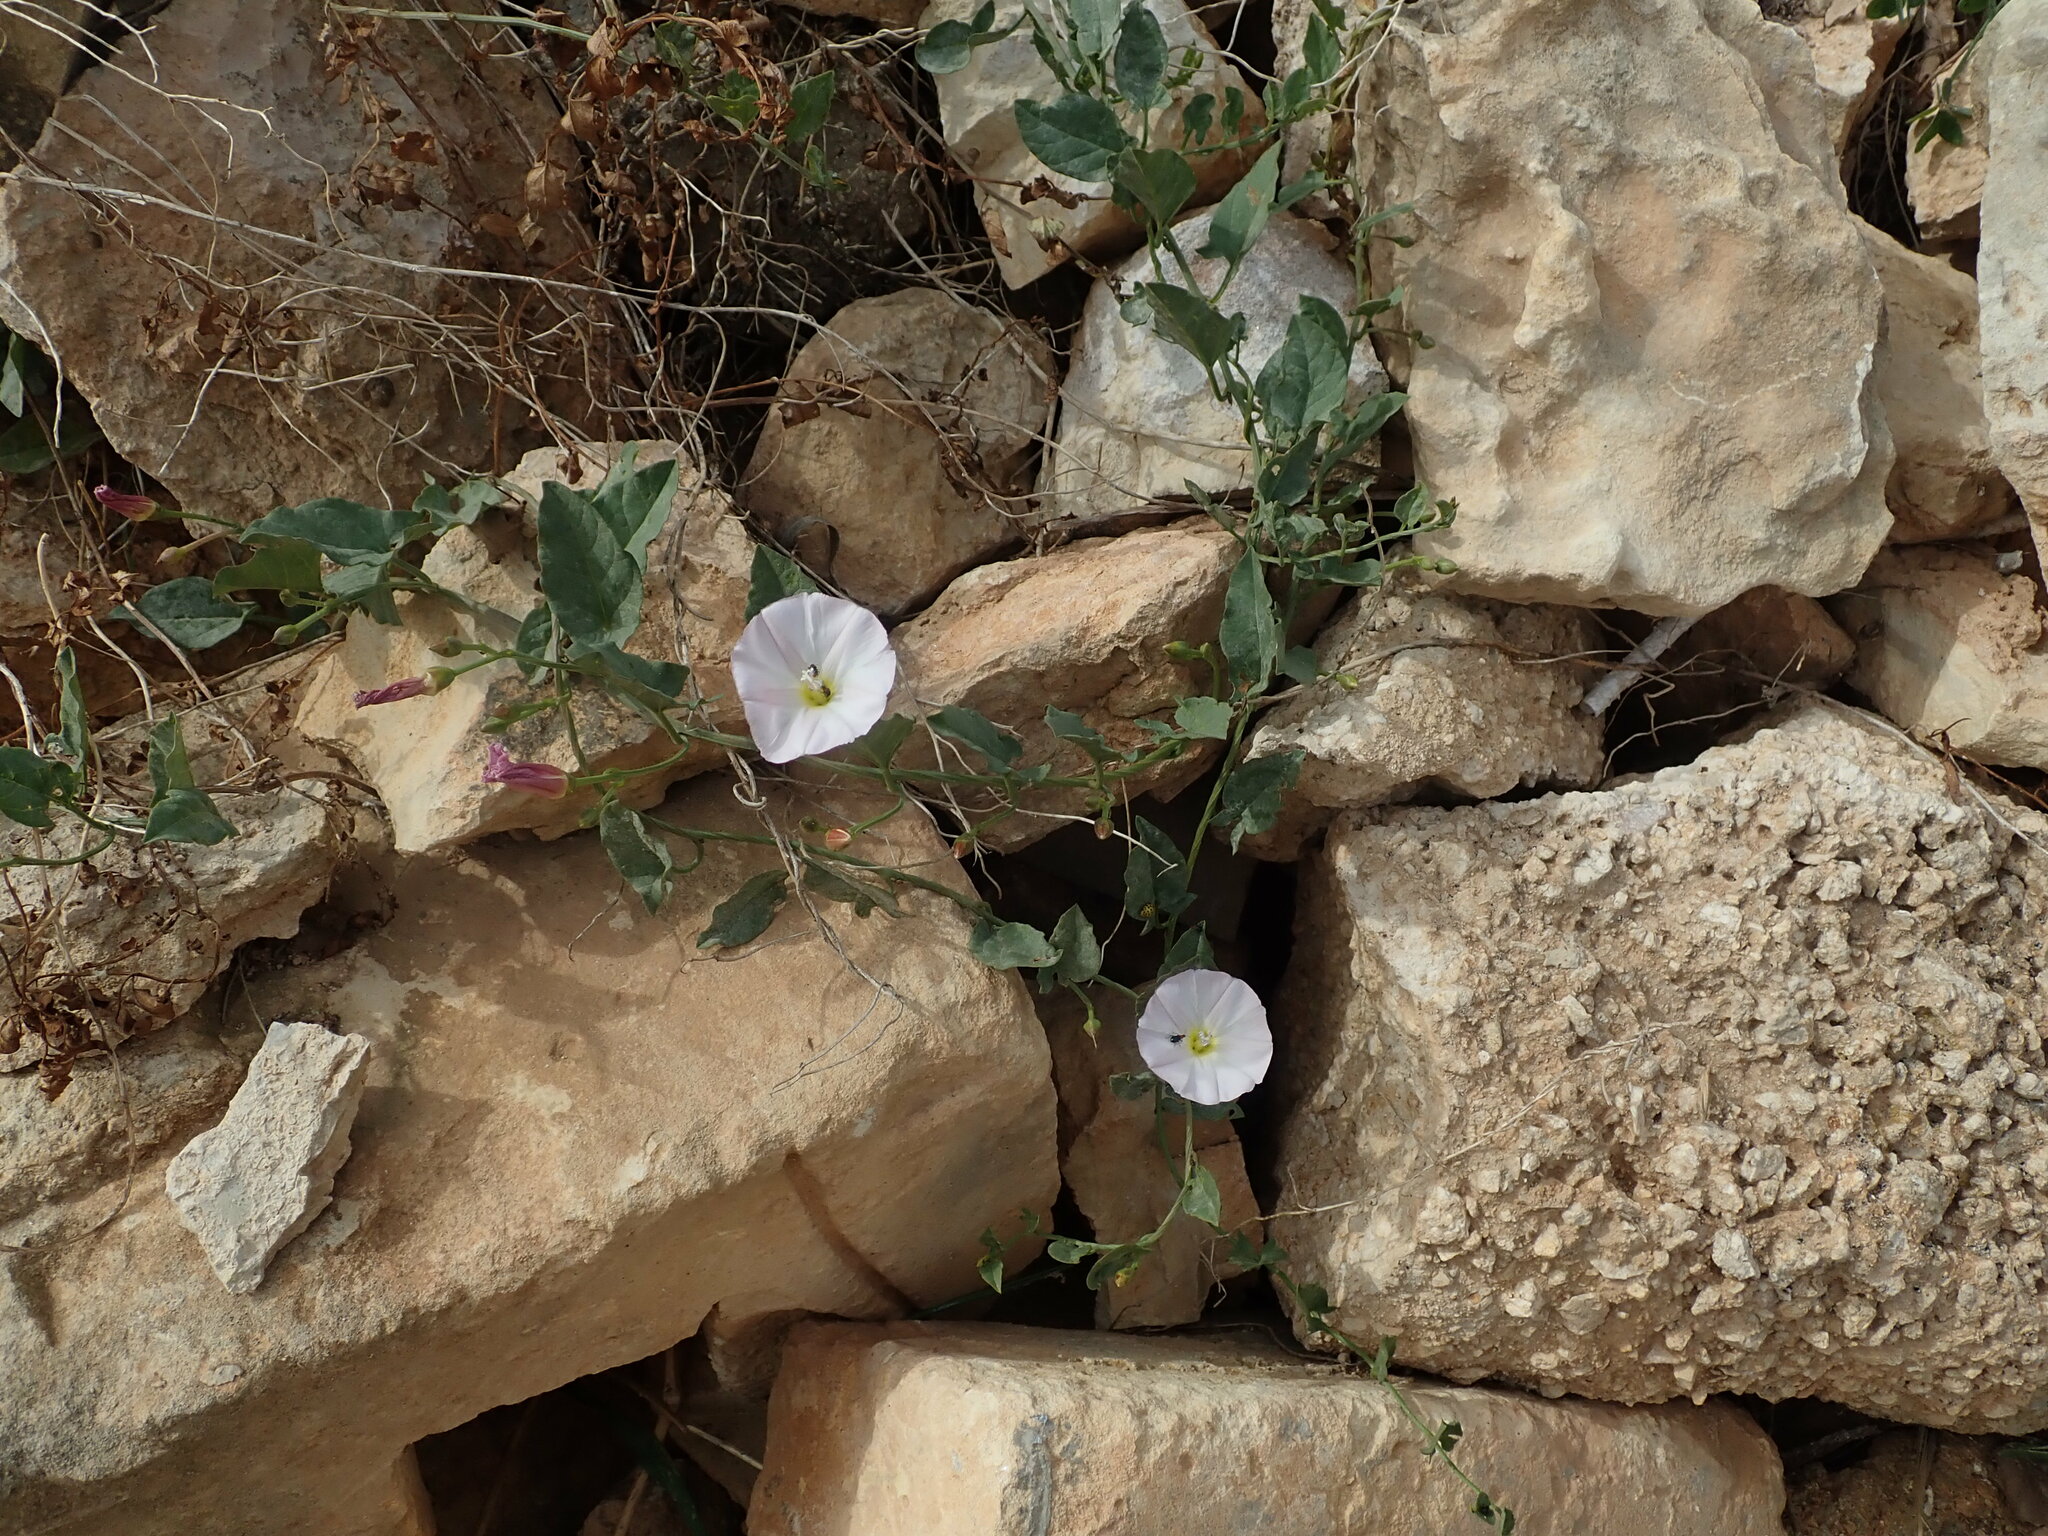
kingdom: Plantae
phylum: Tracheophyta
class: Magnoliopsida
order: Solanales
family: Convolvulaceae
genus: Convolvulus
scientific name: Convolvulus arvensis
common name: Field bindweed
